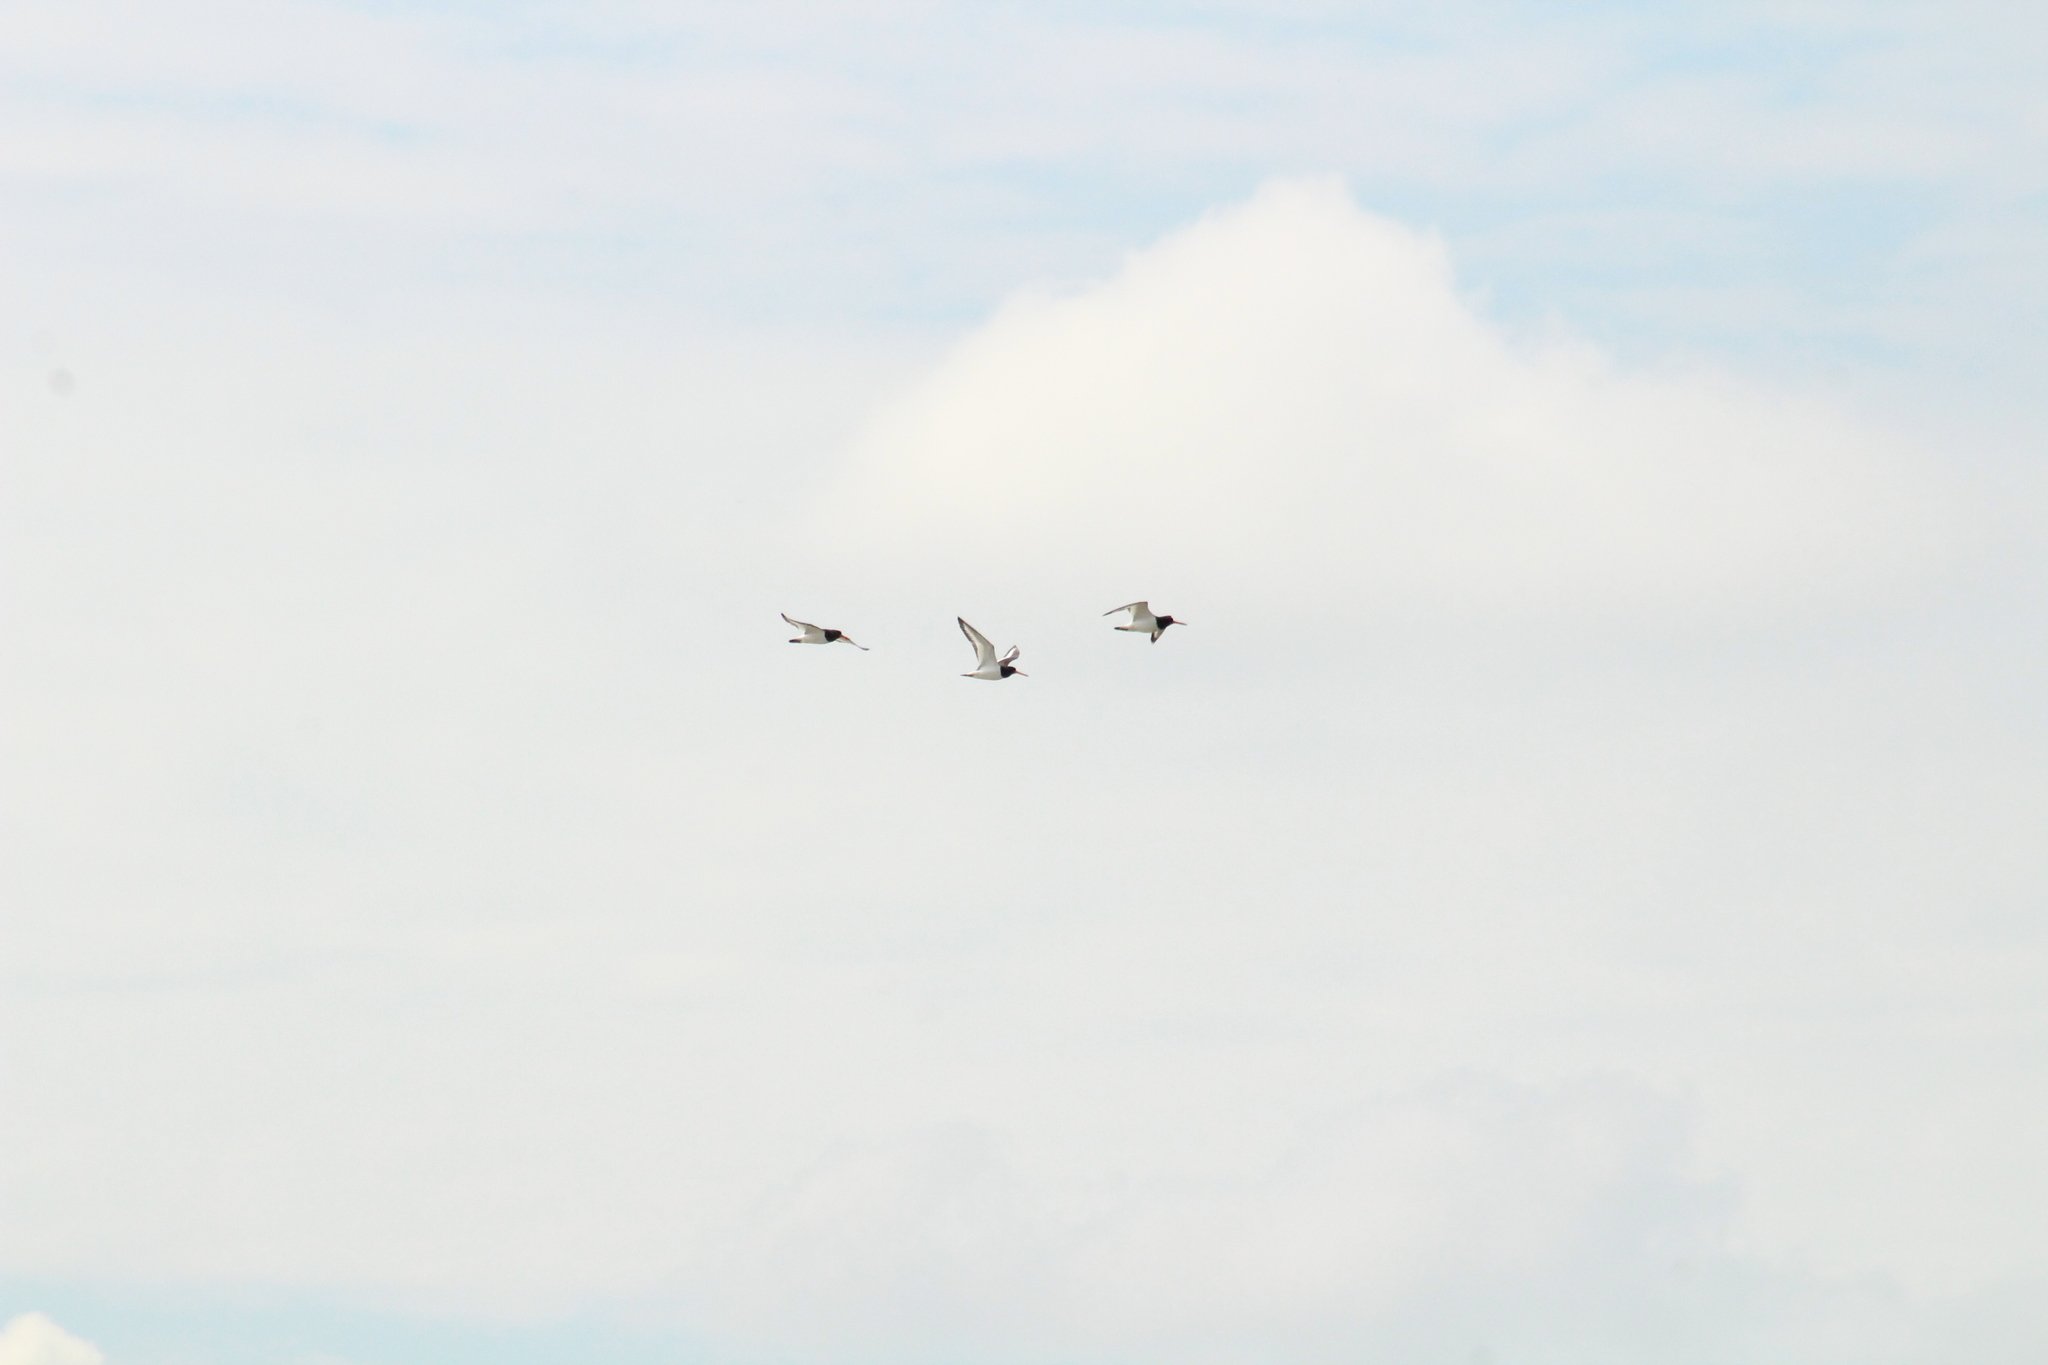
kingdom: Animalia
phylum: Chordata
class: Aves
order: Charadriiformes
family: Haematopodidae
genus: Haematopus
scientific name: Haematopus ostralegus
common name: Eurasian oystercatcher
